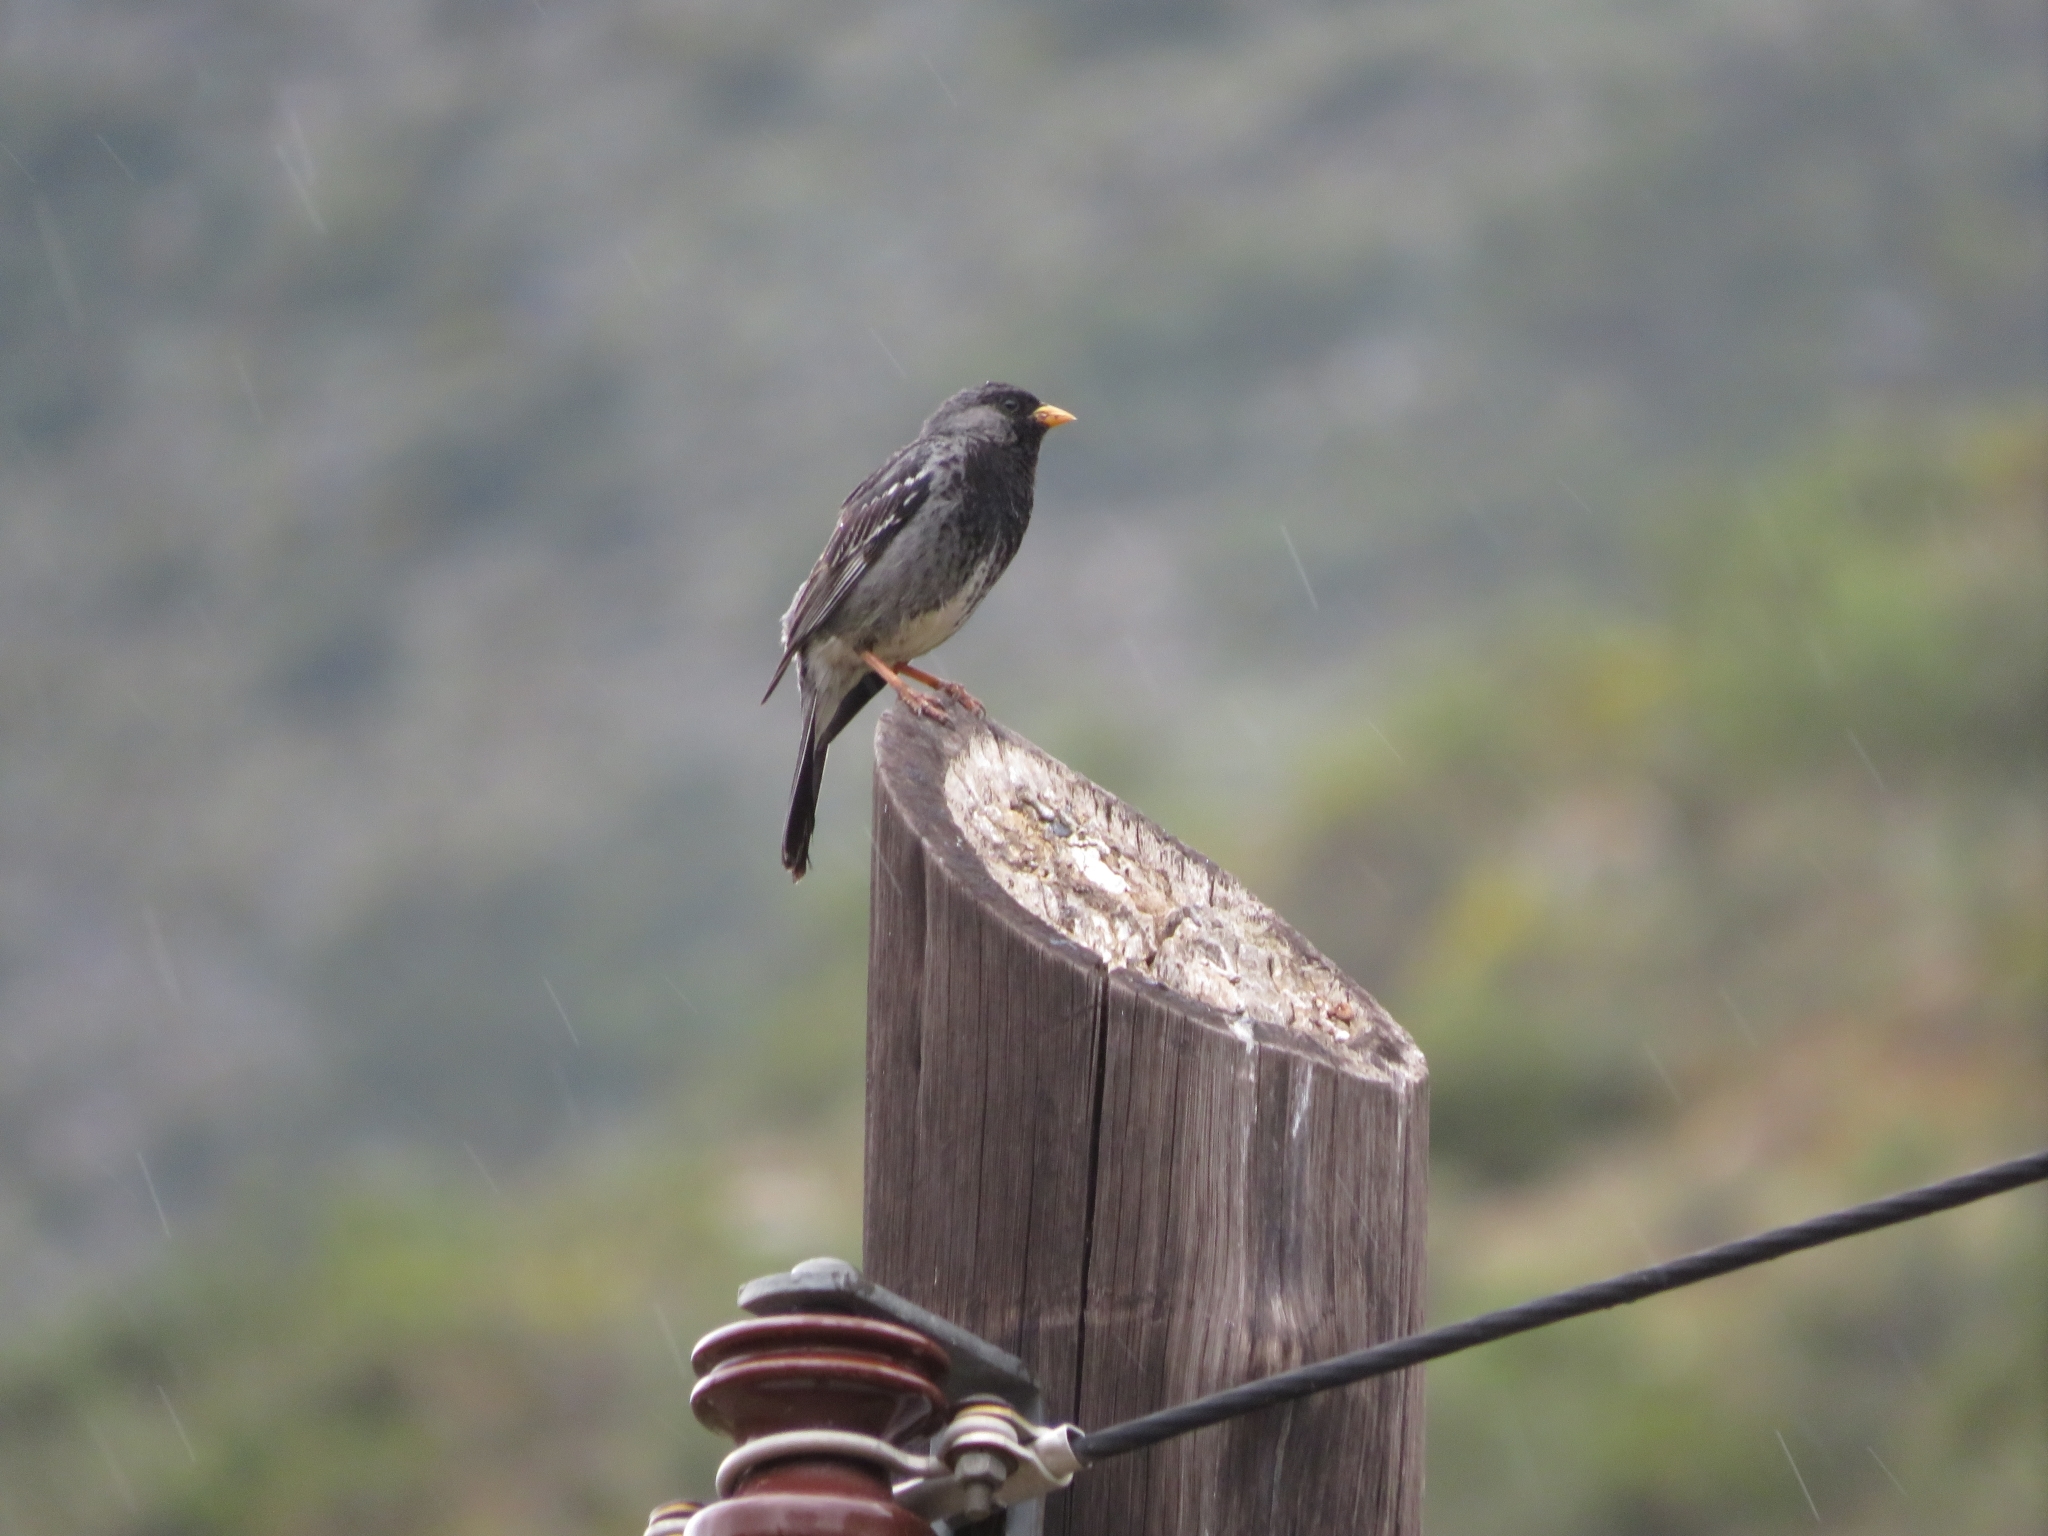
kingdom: Animalia
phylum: Chordata
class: Aves
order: Passeriformes
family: Thraupidae
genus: Rhopospina
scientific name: Rhopospina fruticeti
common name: Mourning sierra finch
